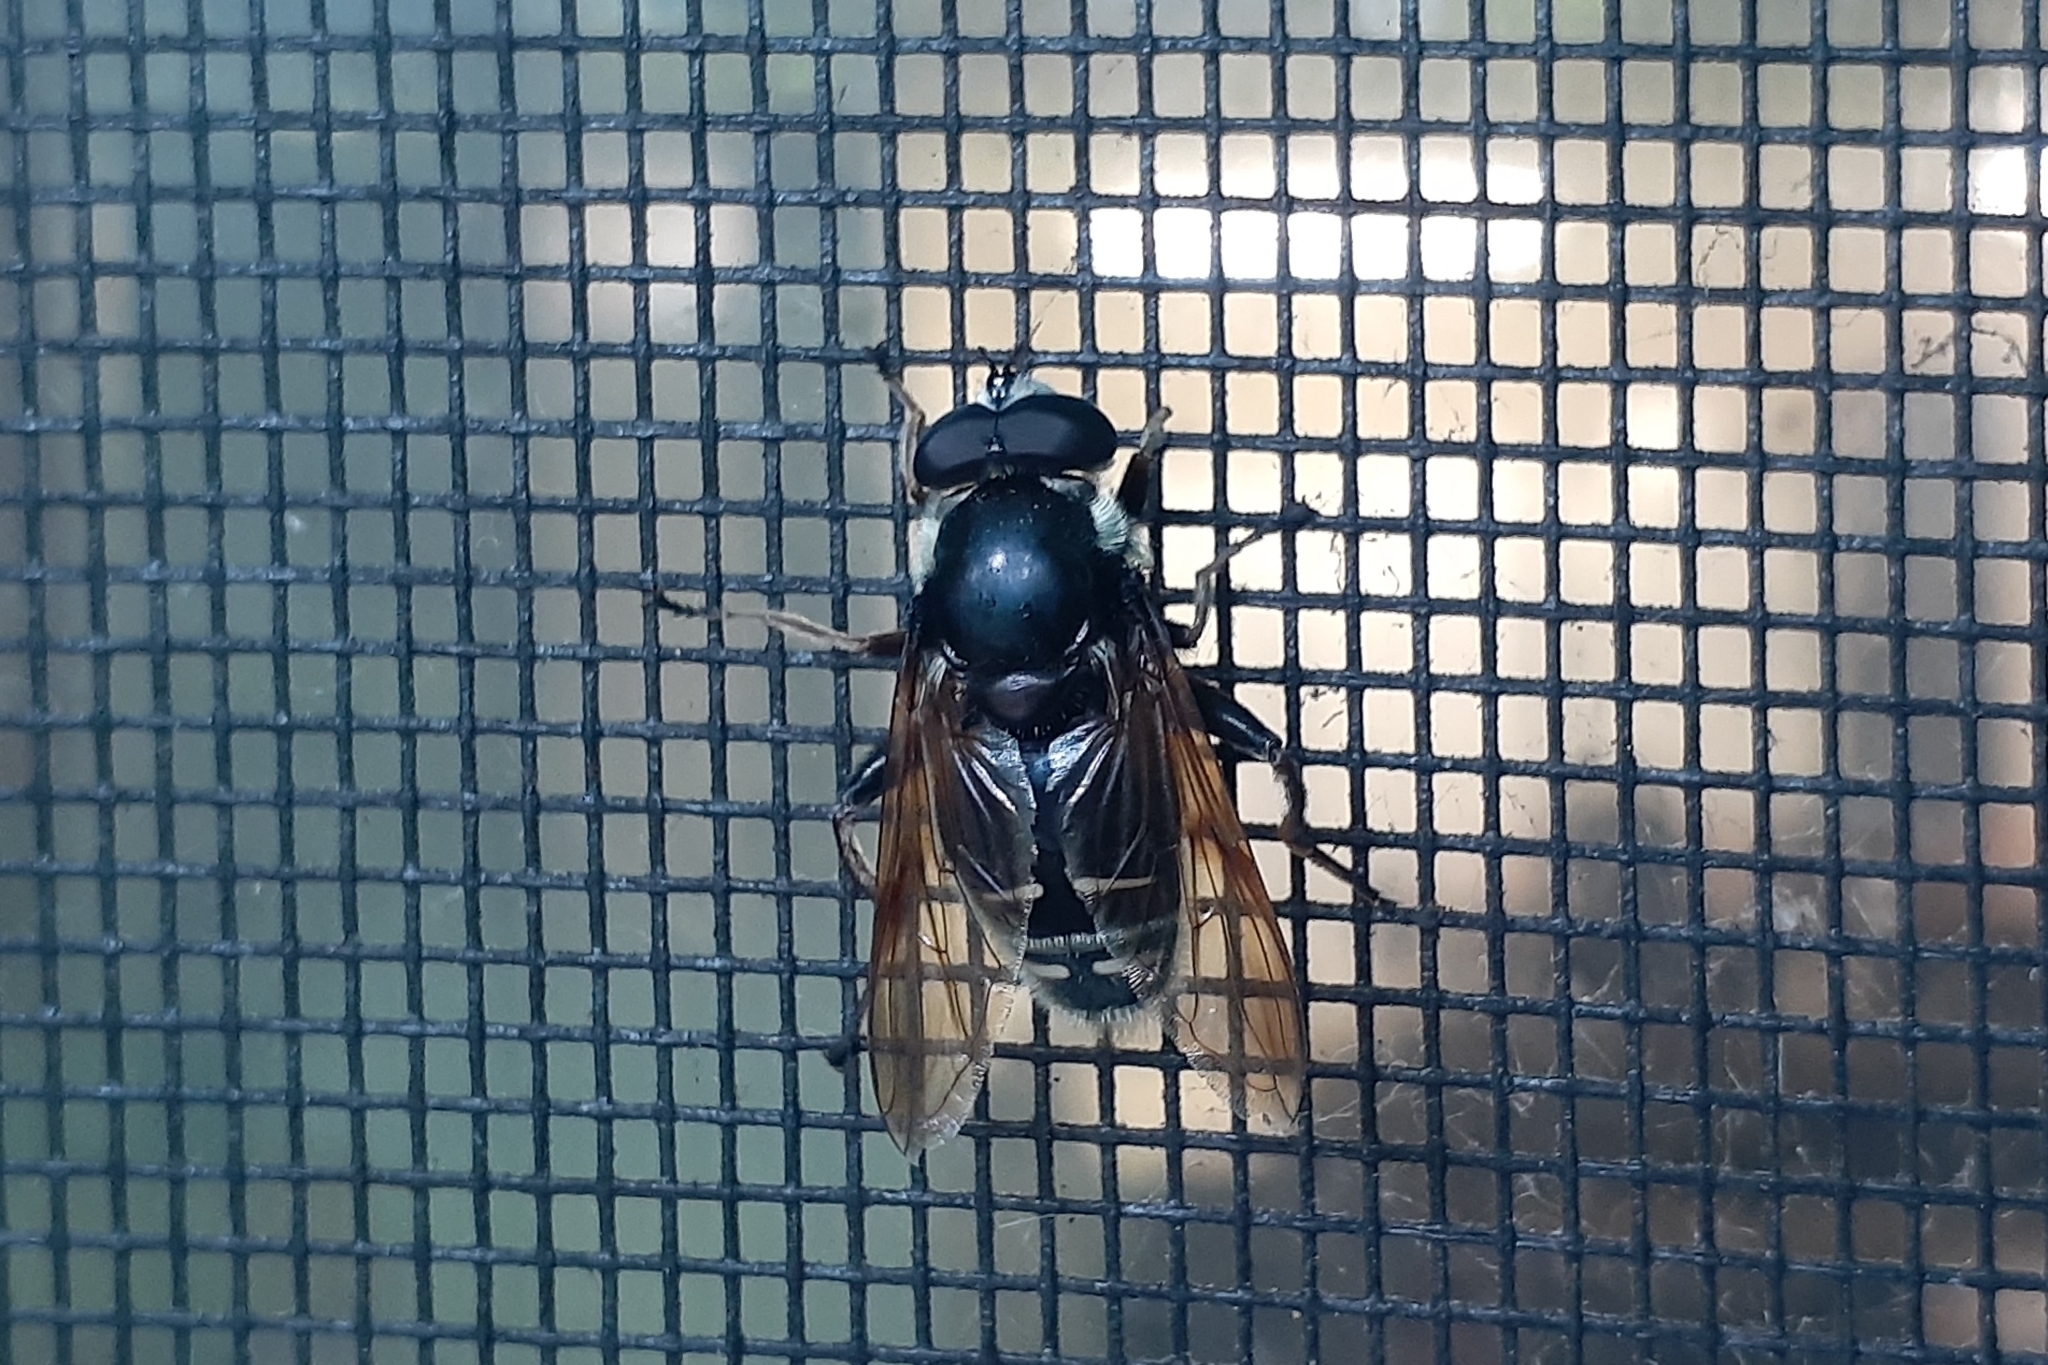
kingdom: Animalia
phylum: Arthropoda
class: Insecta
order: Diptera
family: Syrphidae
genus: Sericomyia
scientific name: Sericomyia militaris
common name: Narrow-banded pond fly
